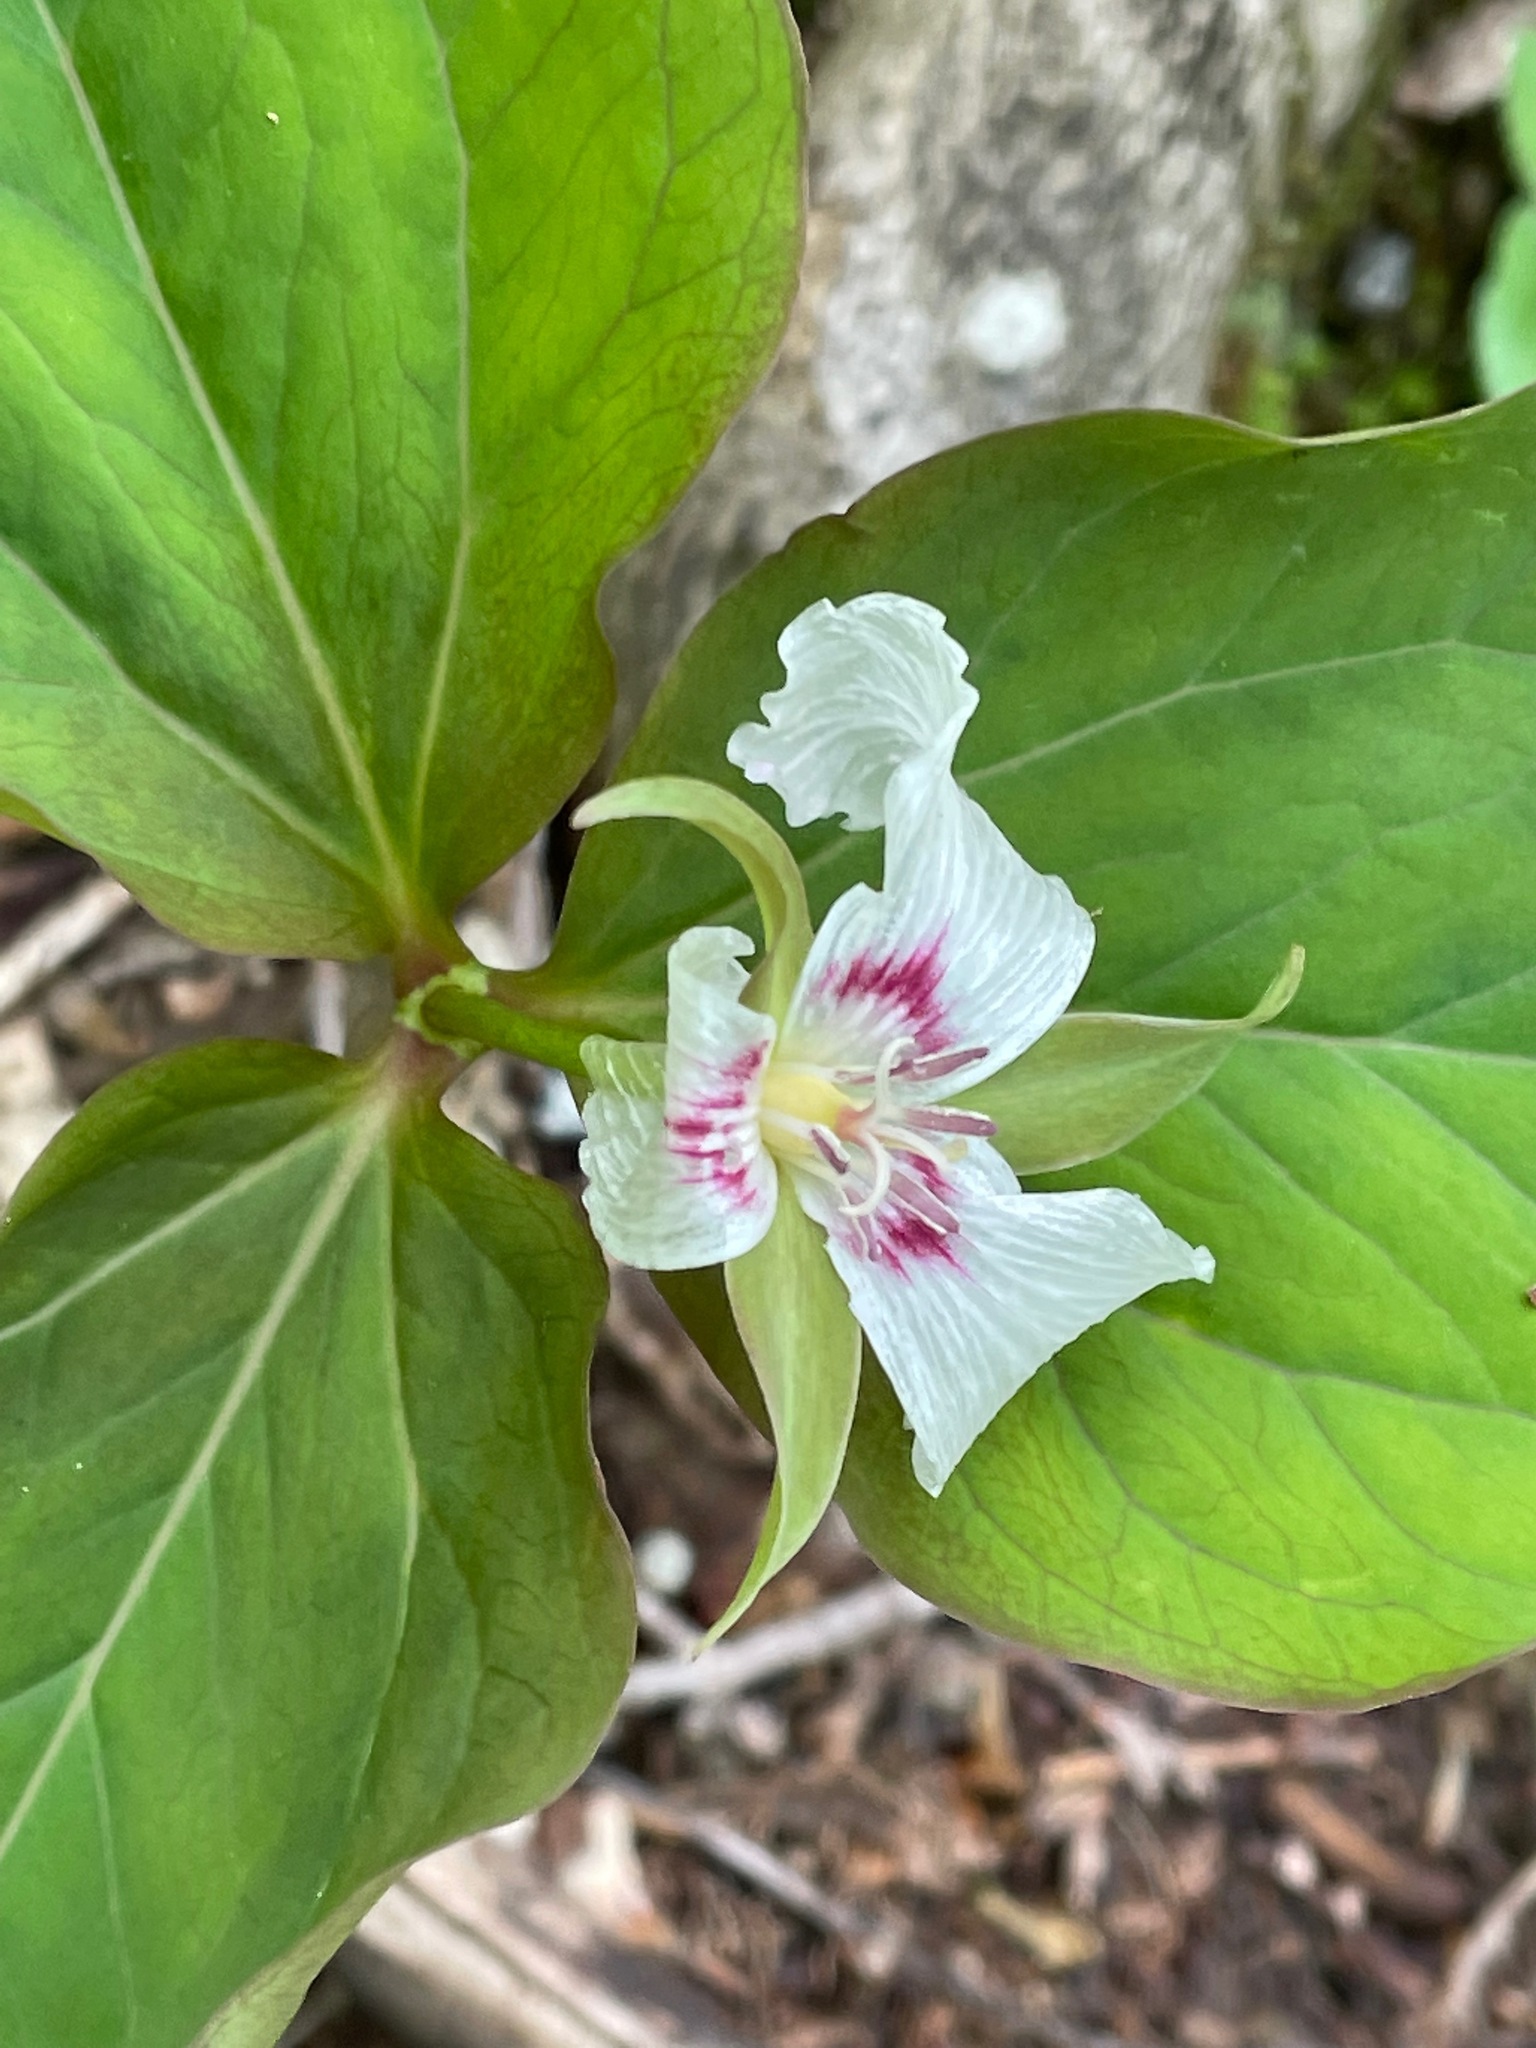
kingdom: Plantae
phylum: Tracheophyta
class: Liliopsida
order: Liliales
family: Melanthiaceae
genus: Trillium
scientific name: Trillium undulatum
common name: Paint trillium
